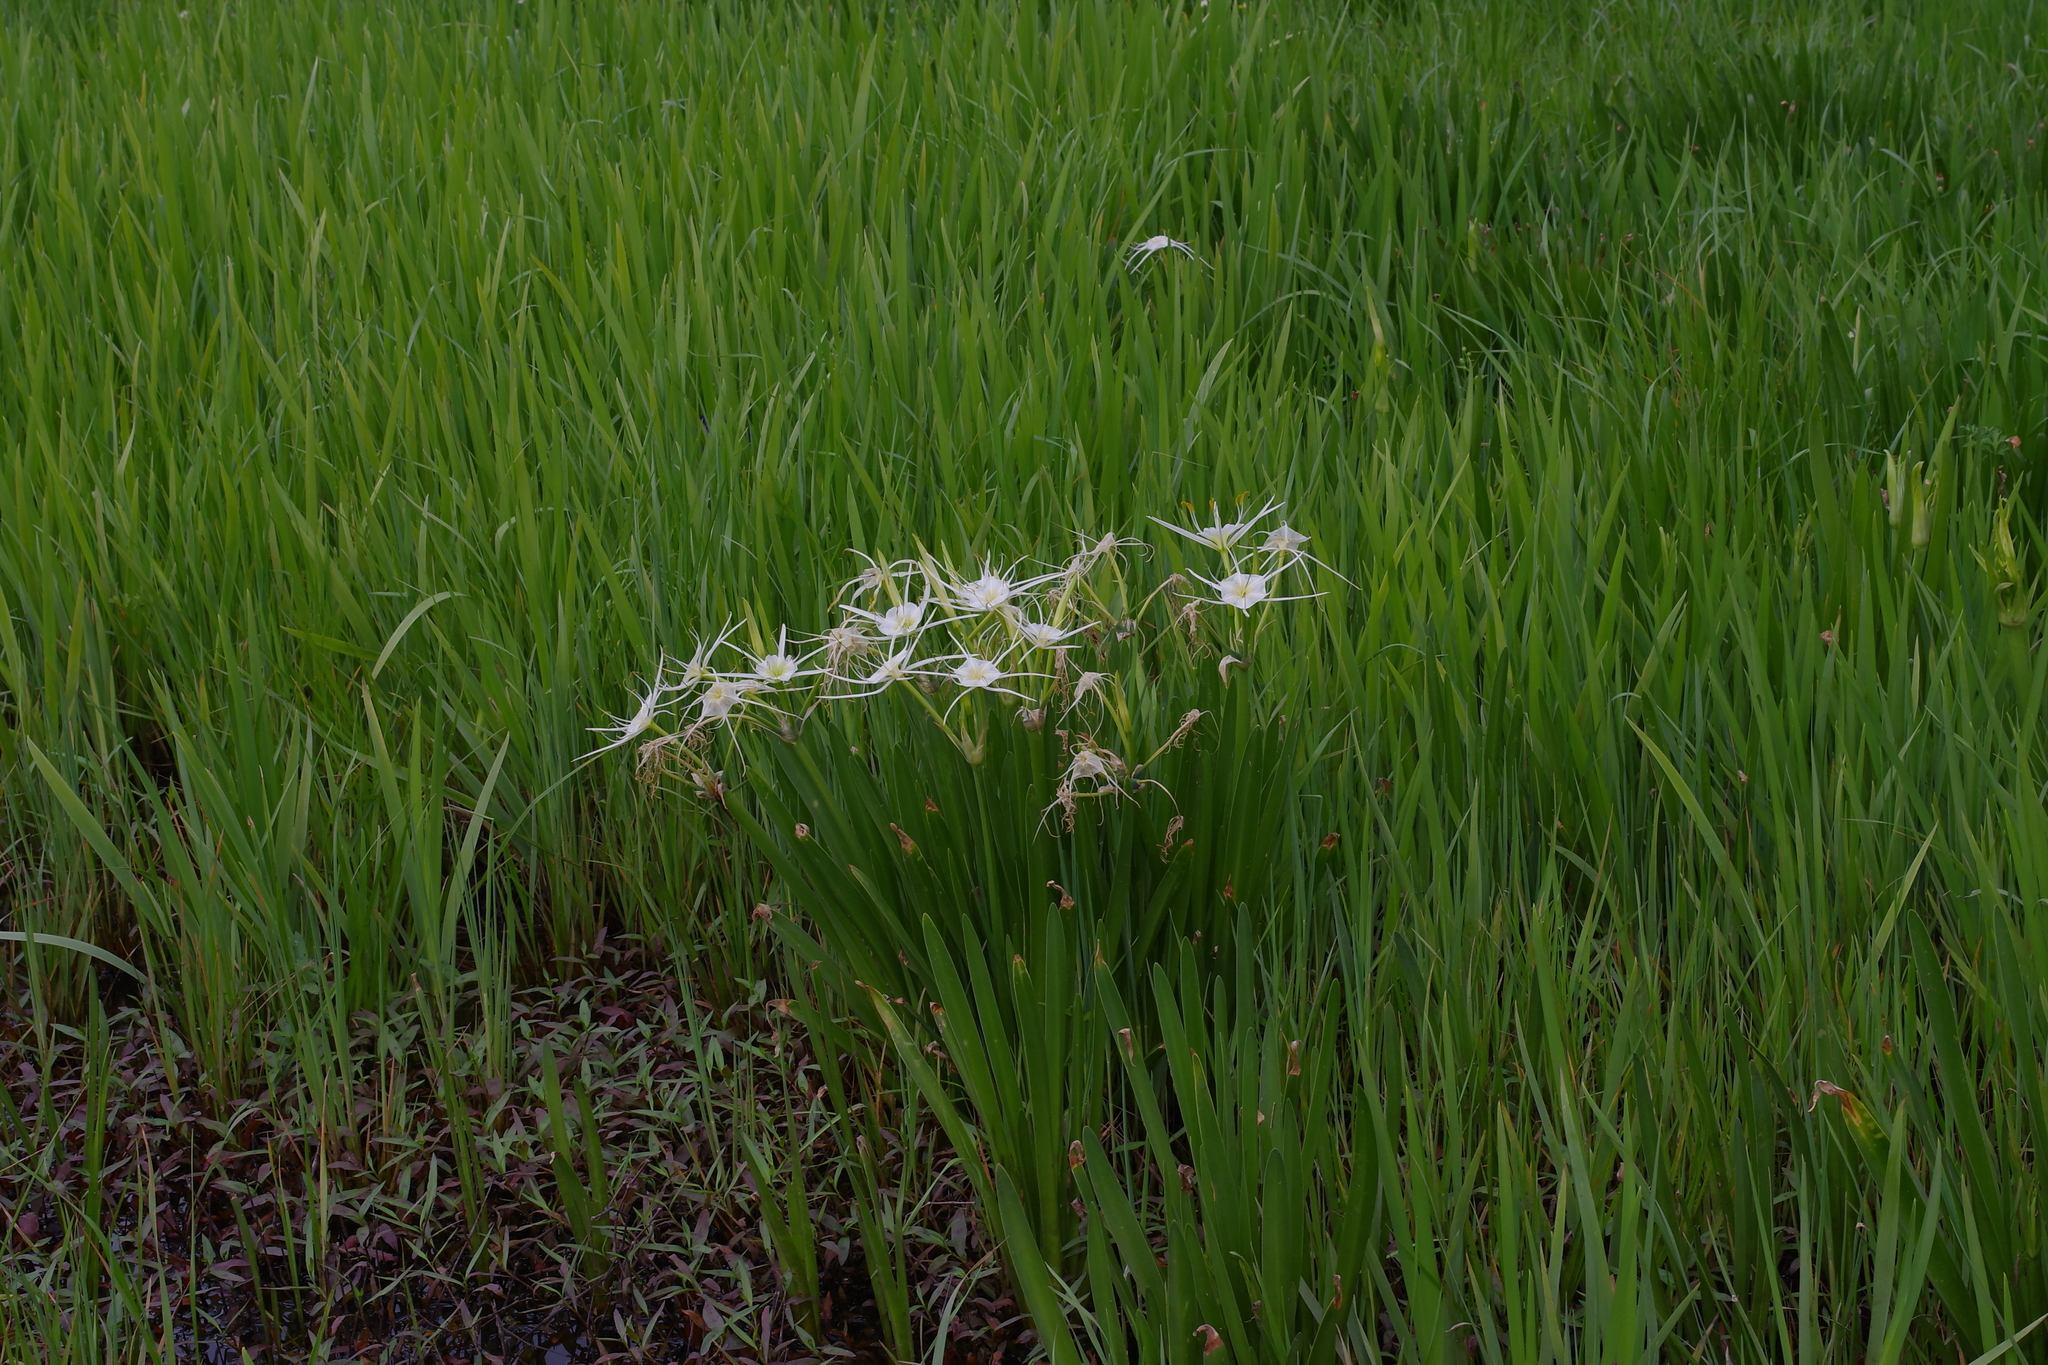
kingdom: Plantae
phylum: Tracheophyta
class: Liliopsida
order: Asparagales
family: Amaryllidaceae
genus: Hymenocallis
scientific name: Hymenocallis liriosme
